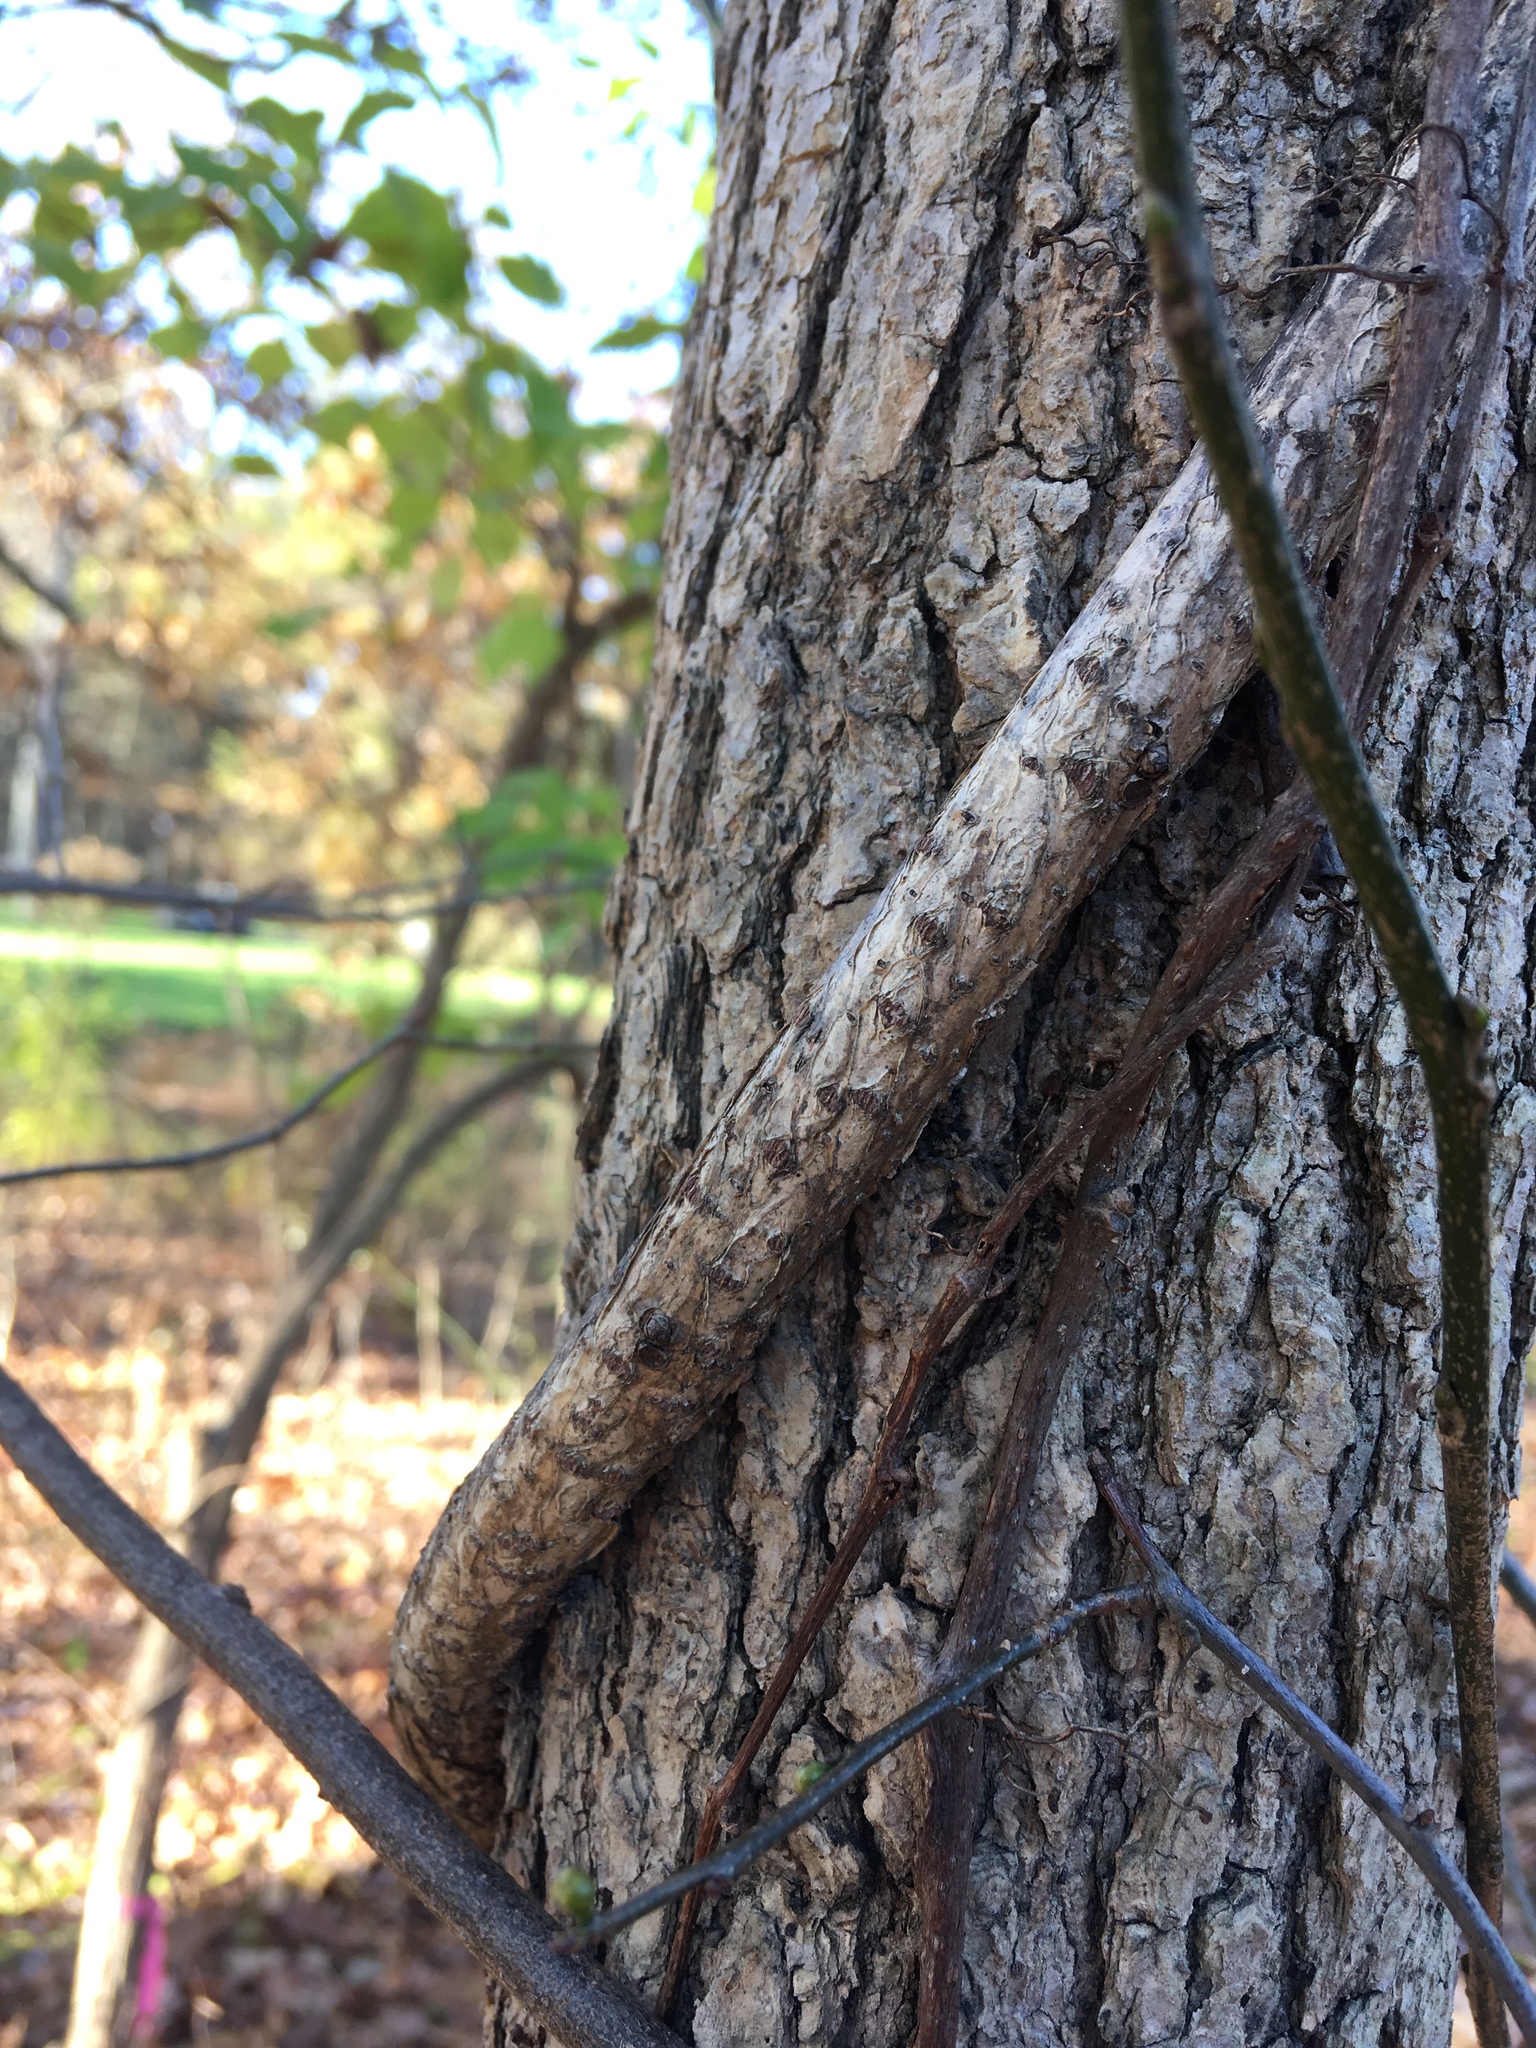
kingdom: Plantae
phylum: Tracheophyta
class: Magnoliopsida
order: Celastrales
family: Celastraceae
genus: Celastrus
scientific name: Celastrus orbiculatus
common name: Oriental bittersweet
